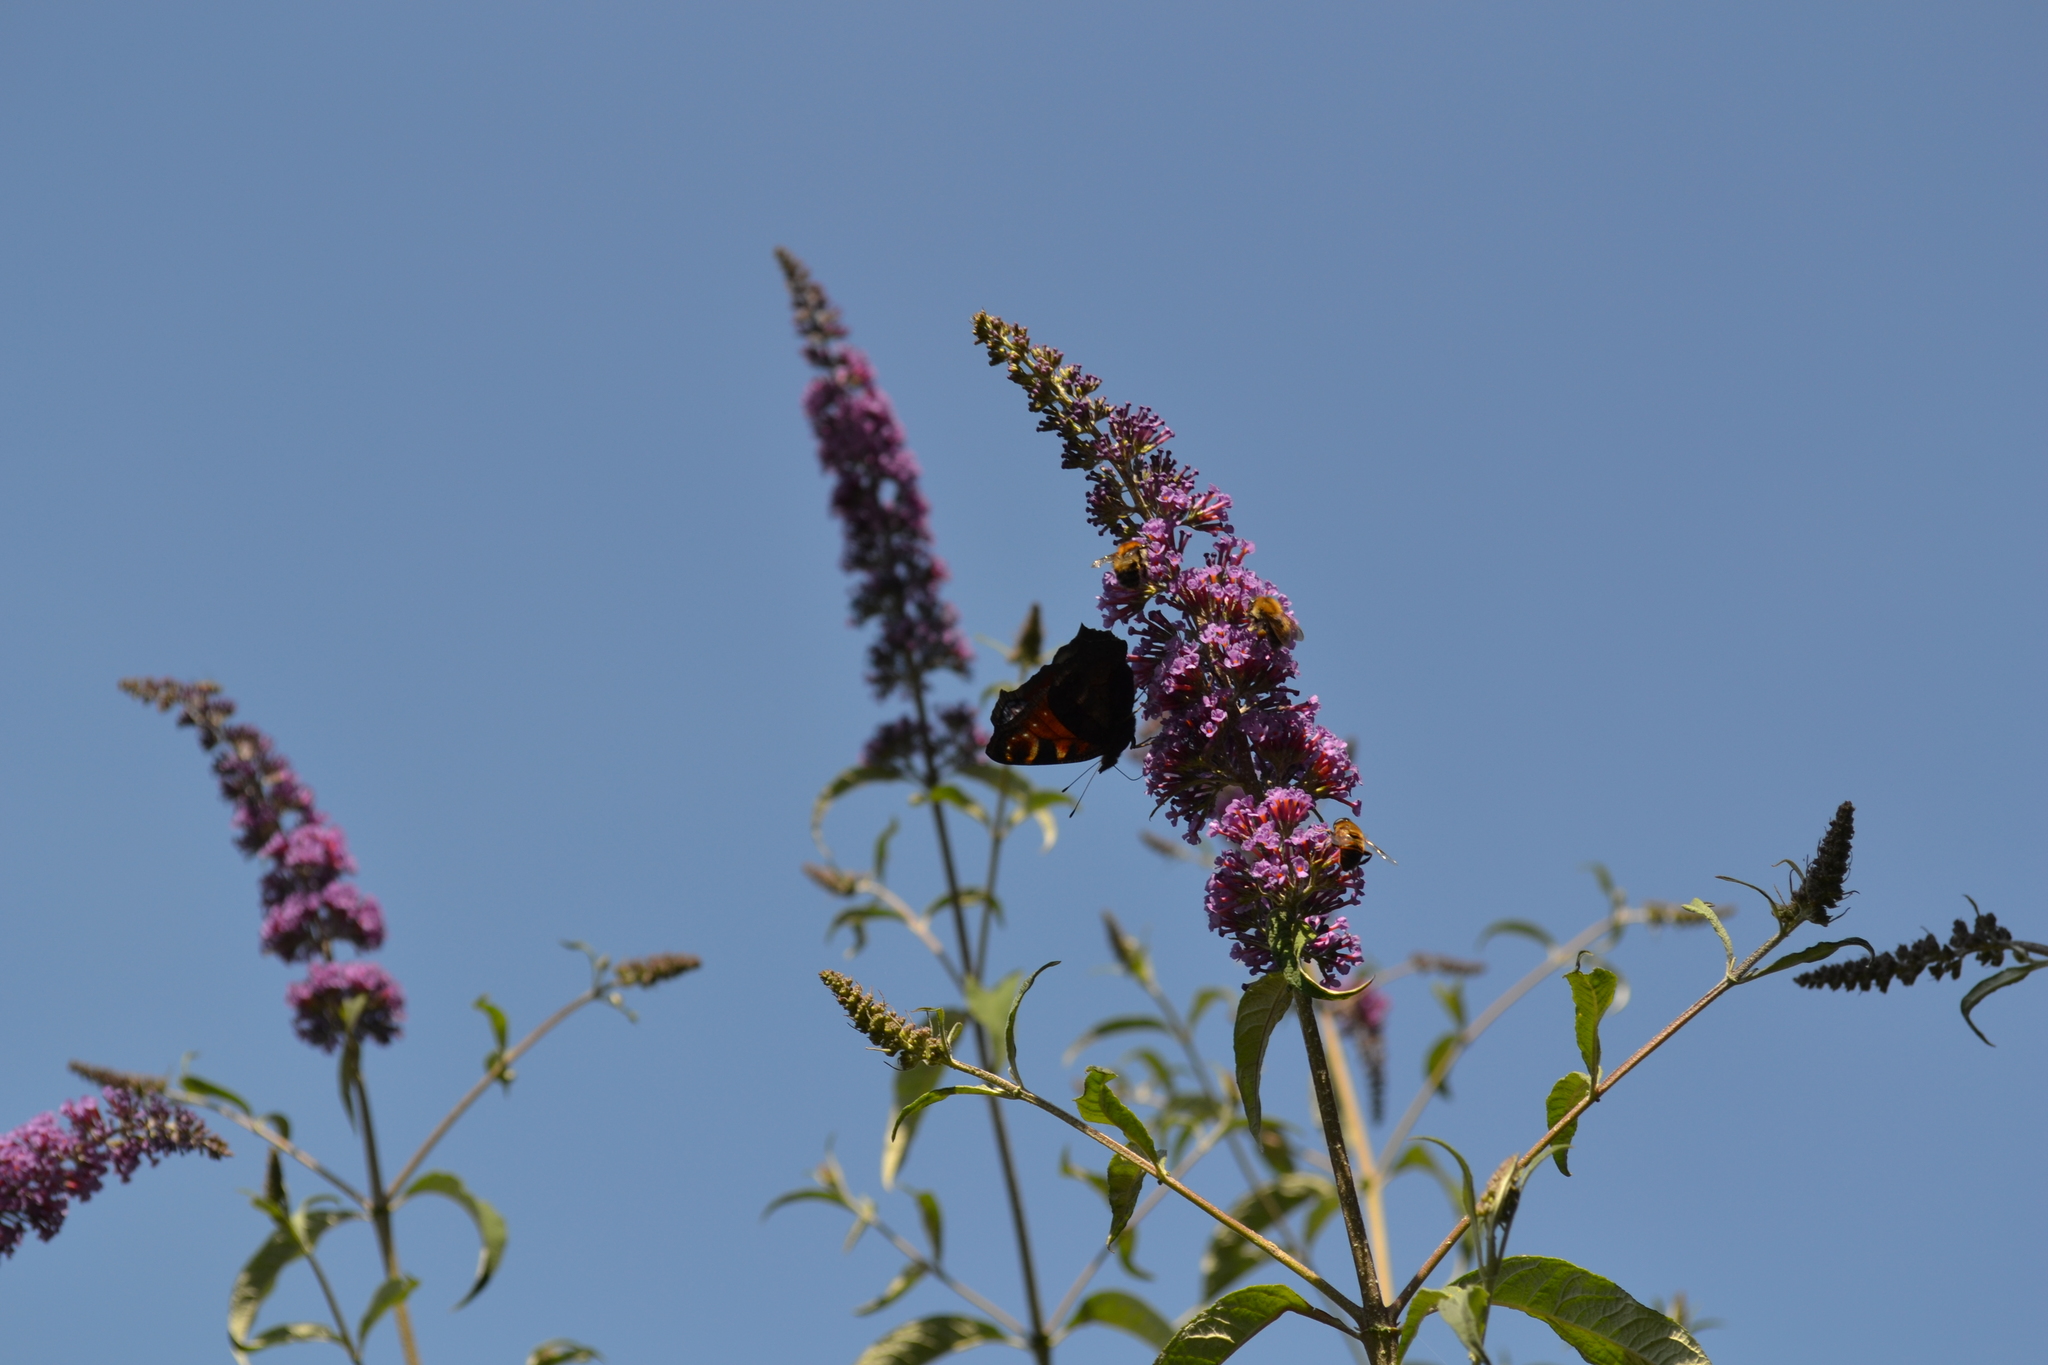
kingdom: Animalia
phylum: Arthropoda
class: Insecta
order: Lepidoptera
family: Nymphalidae
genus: Aglais
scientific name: Aglais io
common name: Peacock
